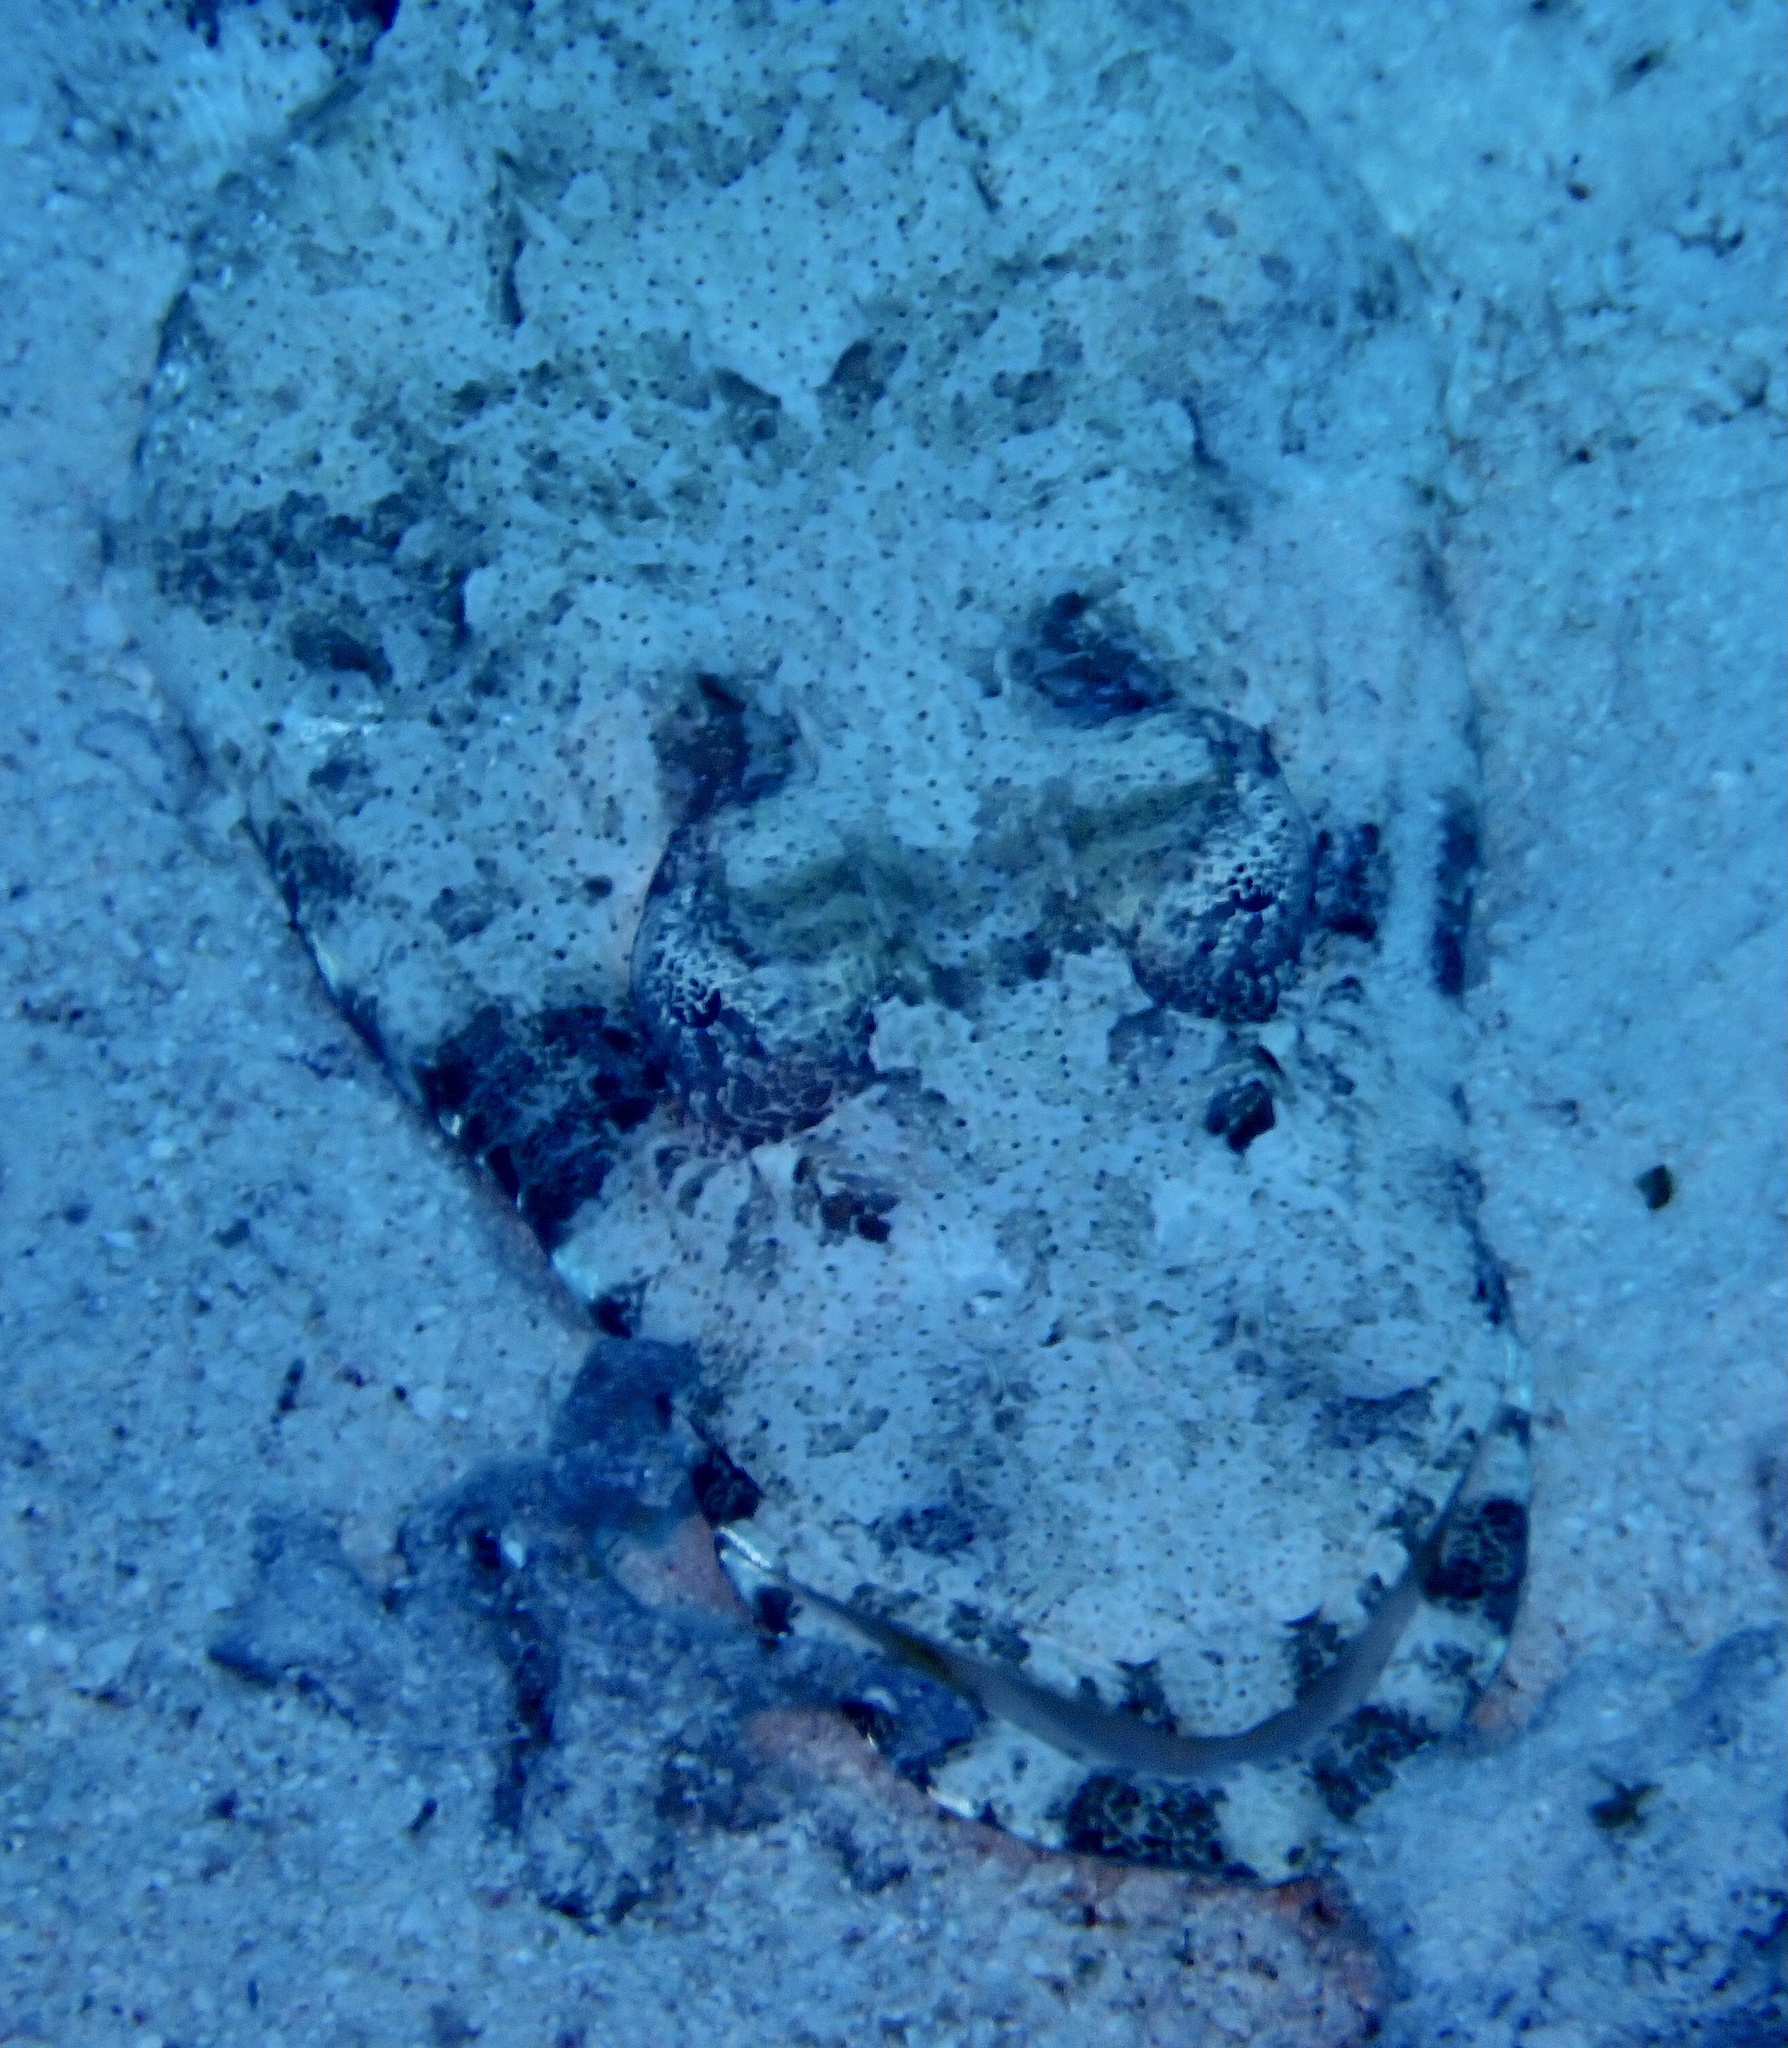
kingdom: Animalia
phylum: Chordata
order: Scorpaeniformes
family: Platycephalidae
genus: Papilloculiceps
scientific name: Papilloculiceps longiceps
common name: Tentacled flathead
